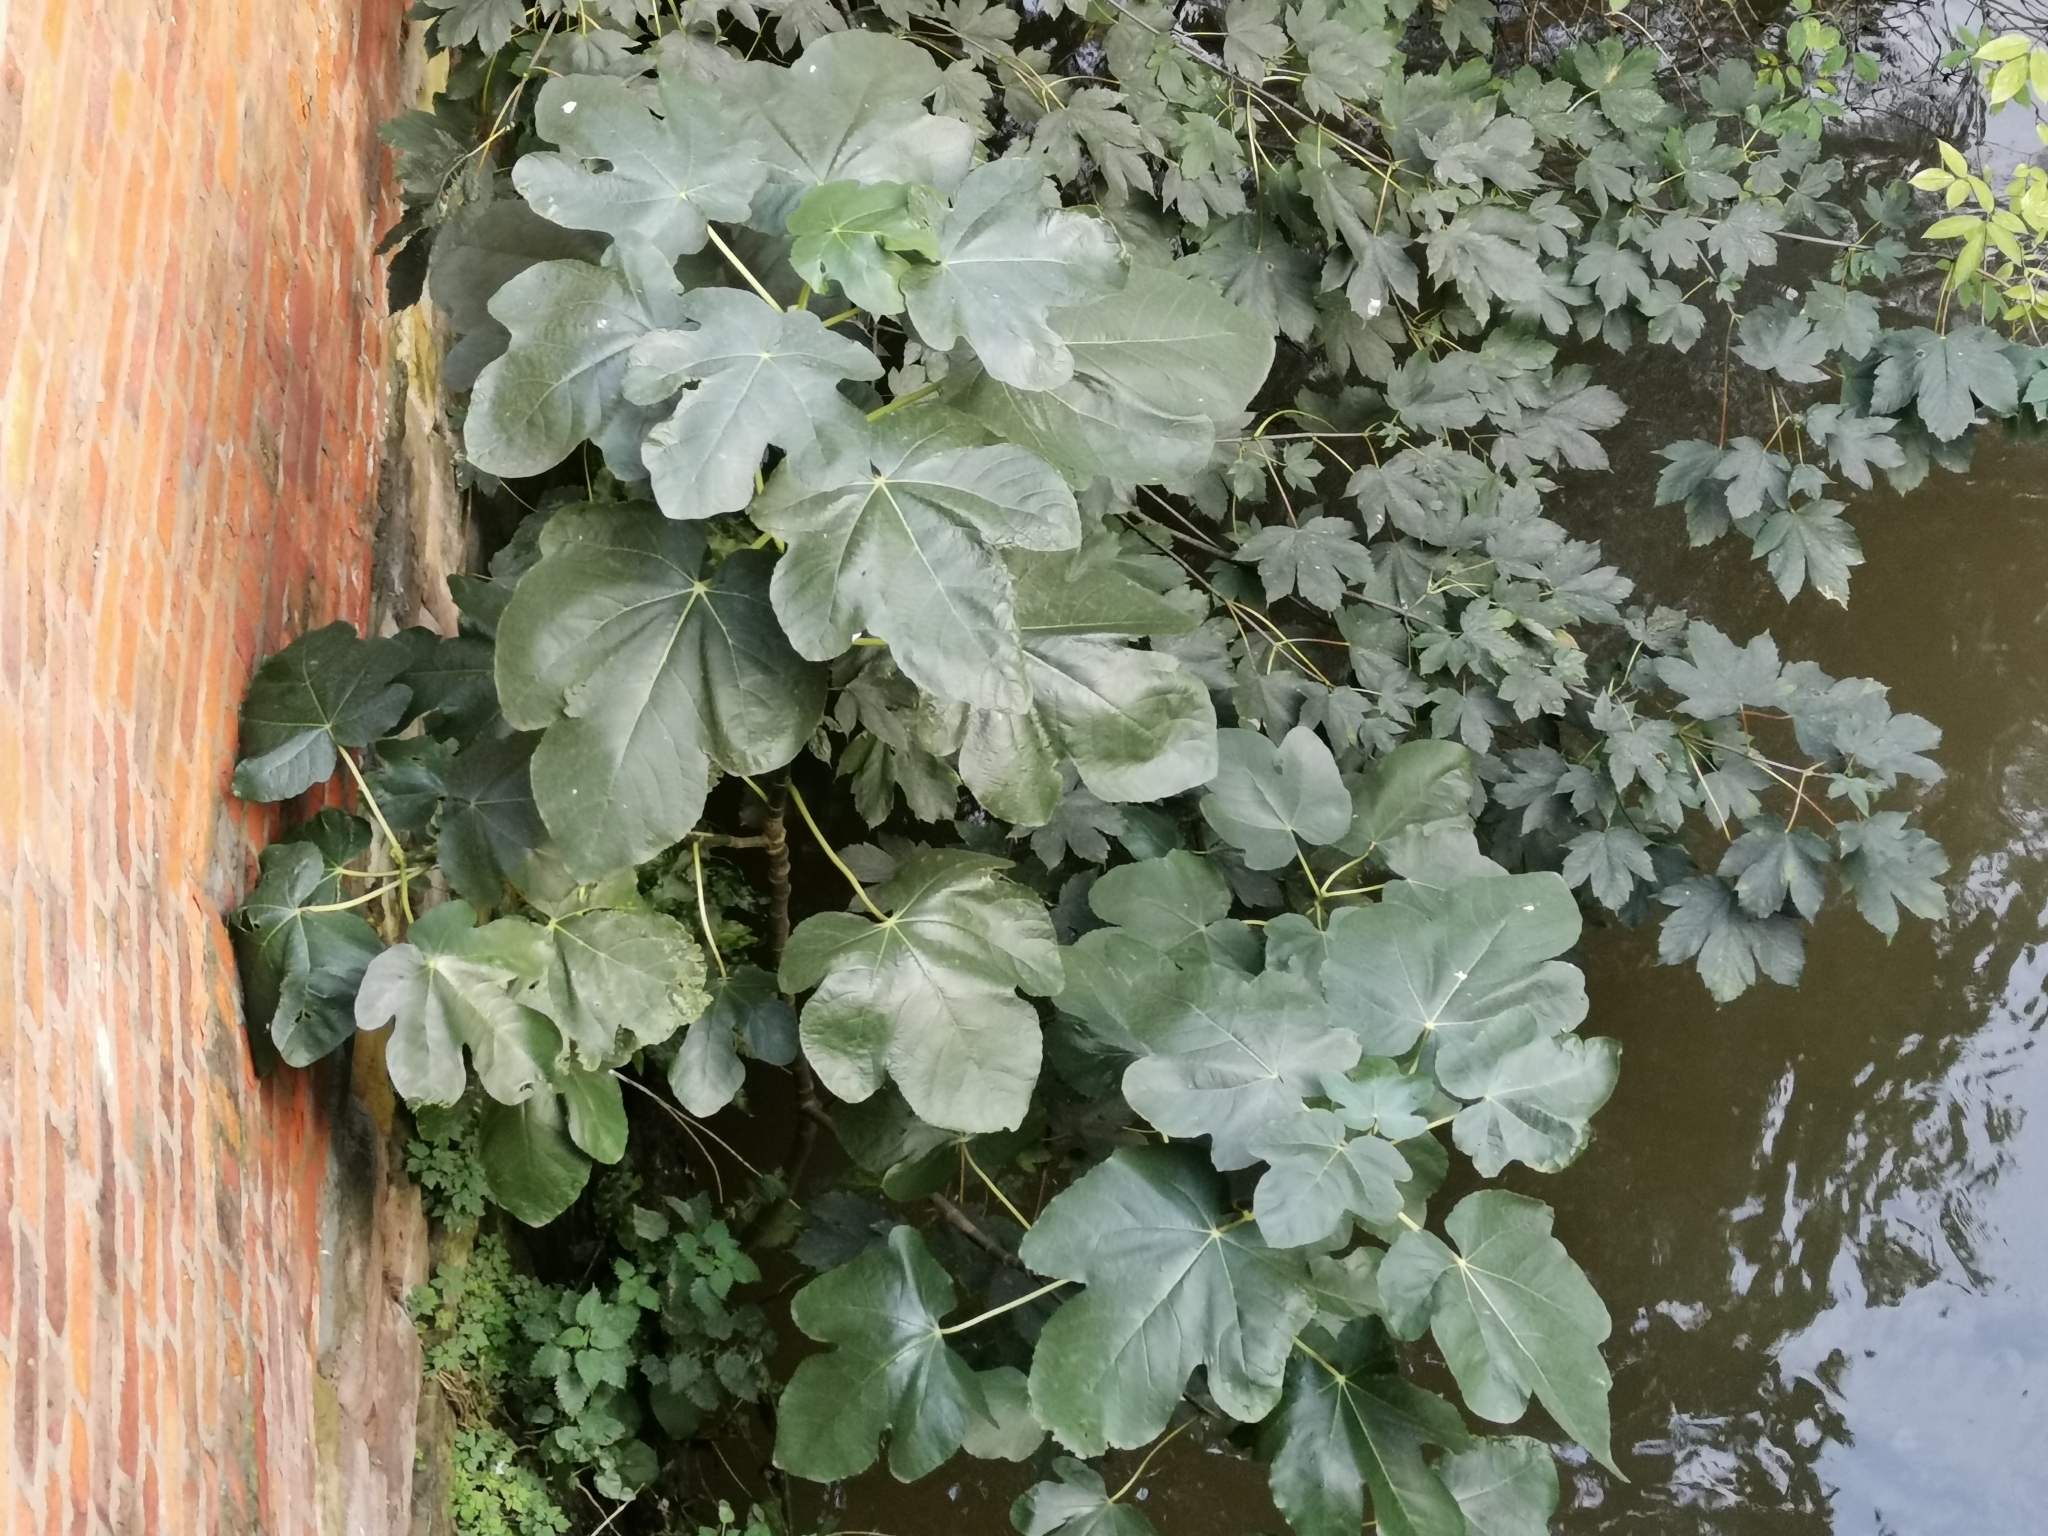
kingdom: Plantae
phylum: Tracheophyta
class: Magnoliopsida
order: Rosales
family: Moraceae
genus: Ficus
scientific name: Ficus carica
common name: Fig
